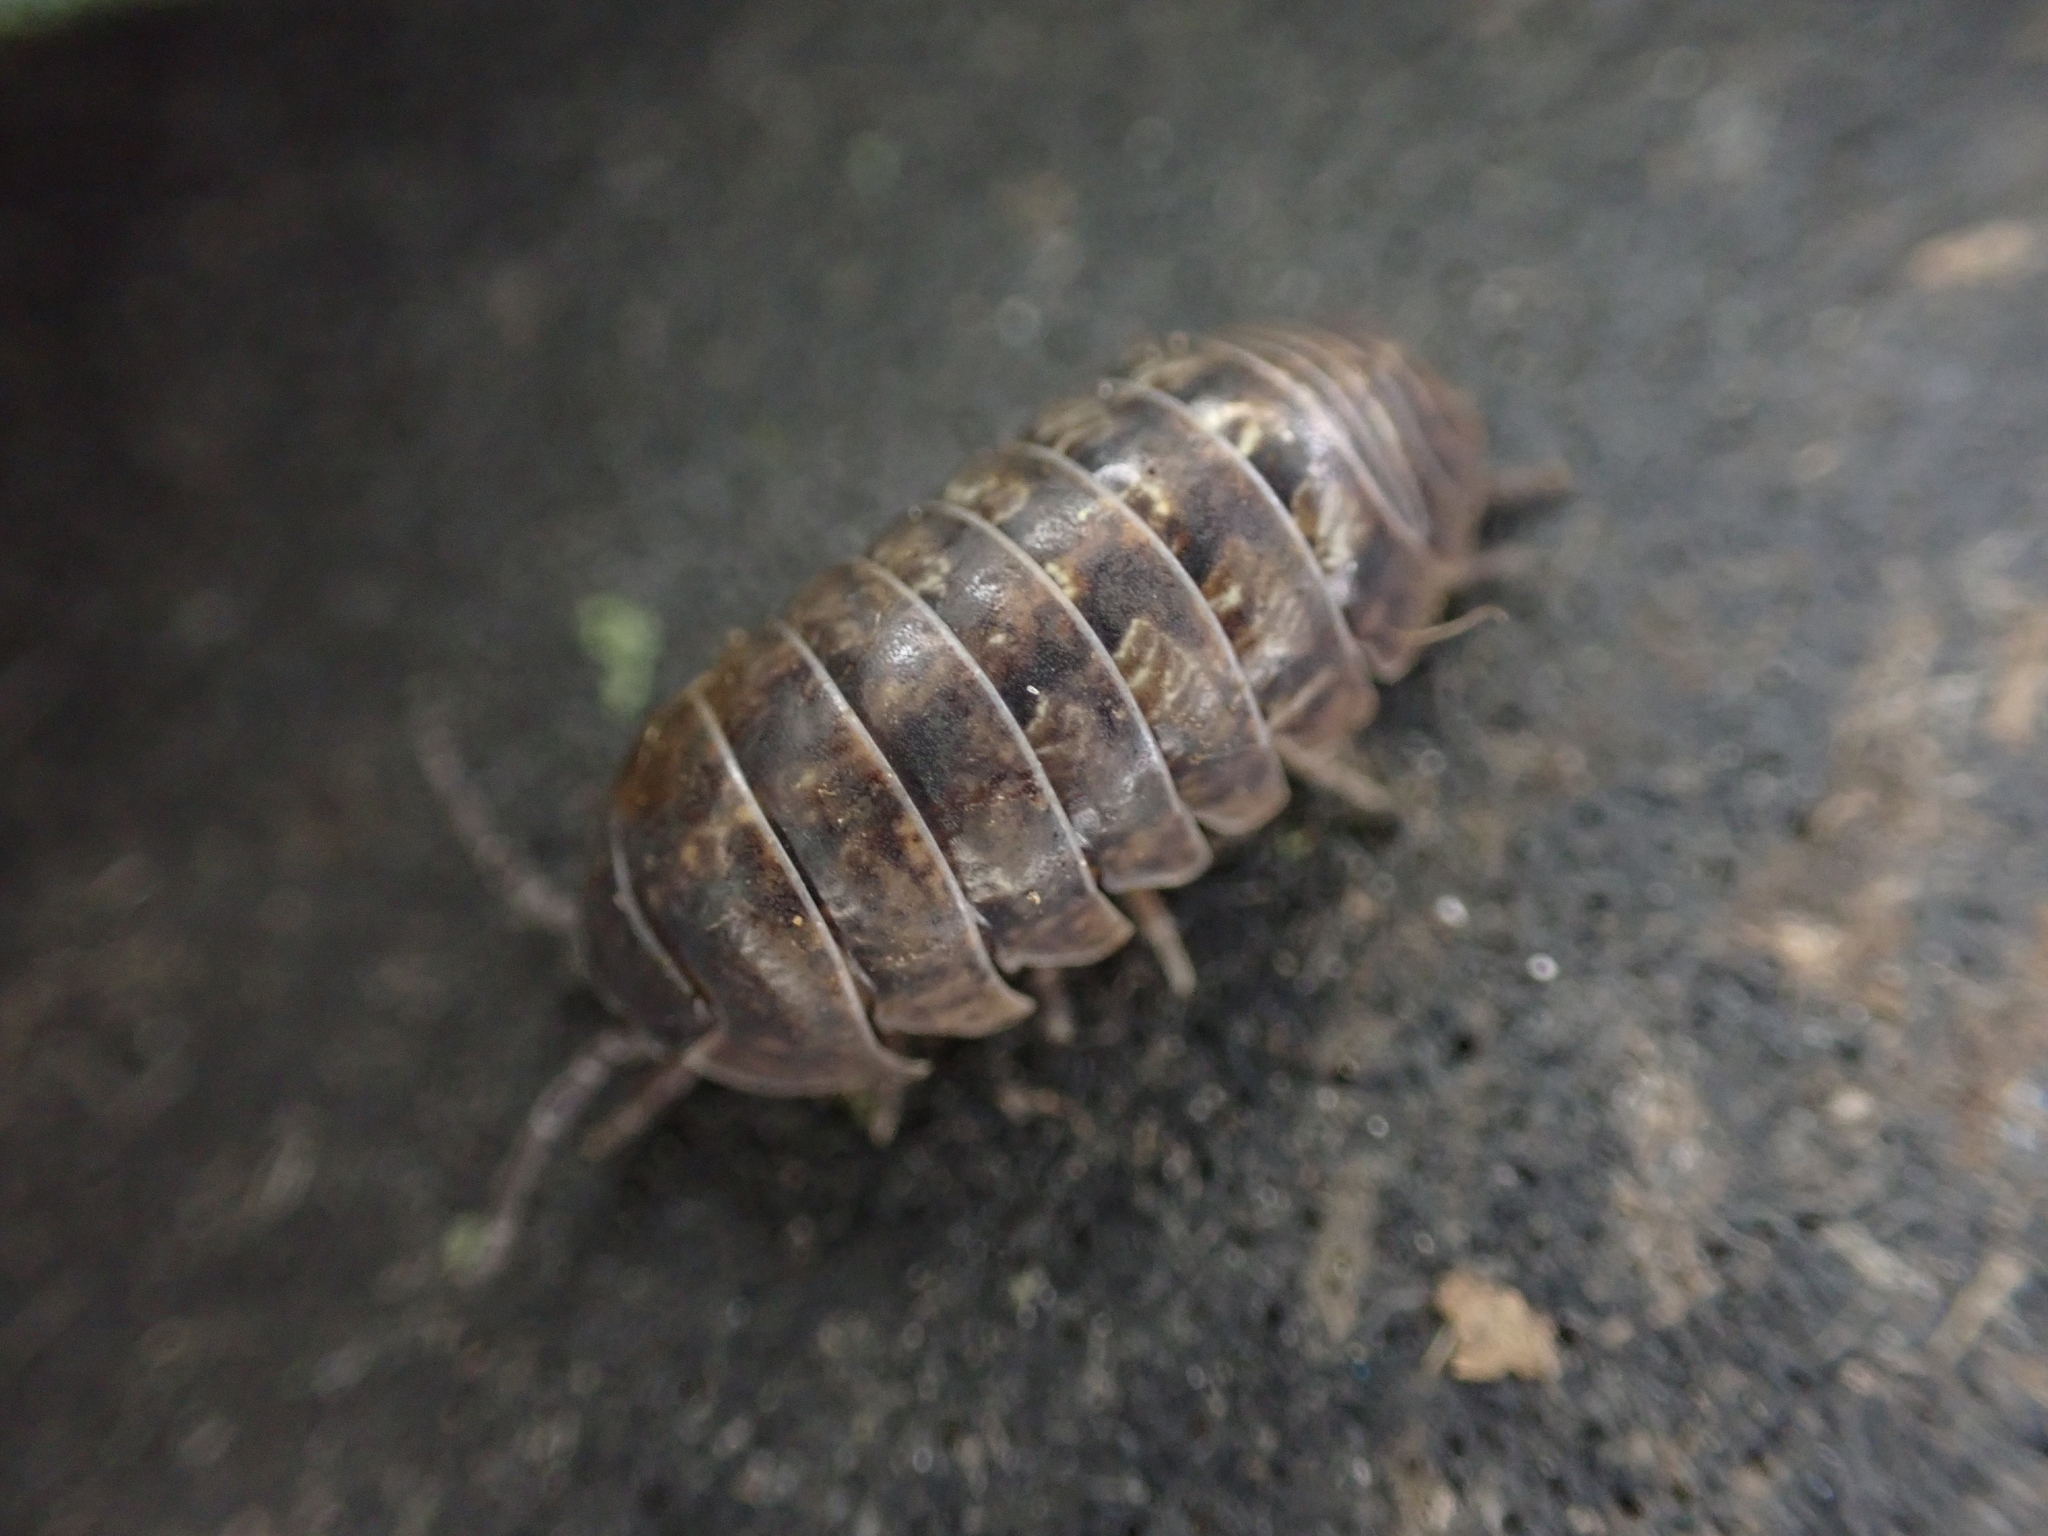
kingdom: Animalia
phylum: Arthropoda
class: Malacostraca
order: Isopoda
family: Armadillidiidae
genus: Armadillidium
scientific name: Armadillidium vulgare
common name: Common pill woodlouse
